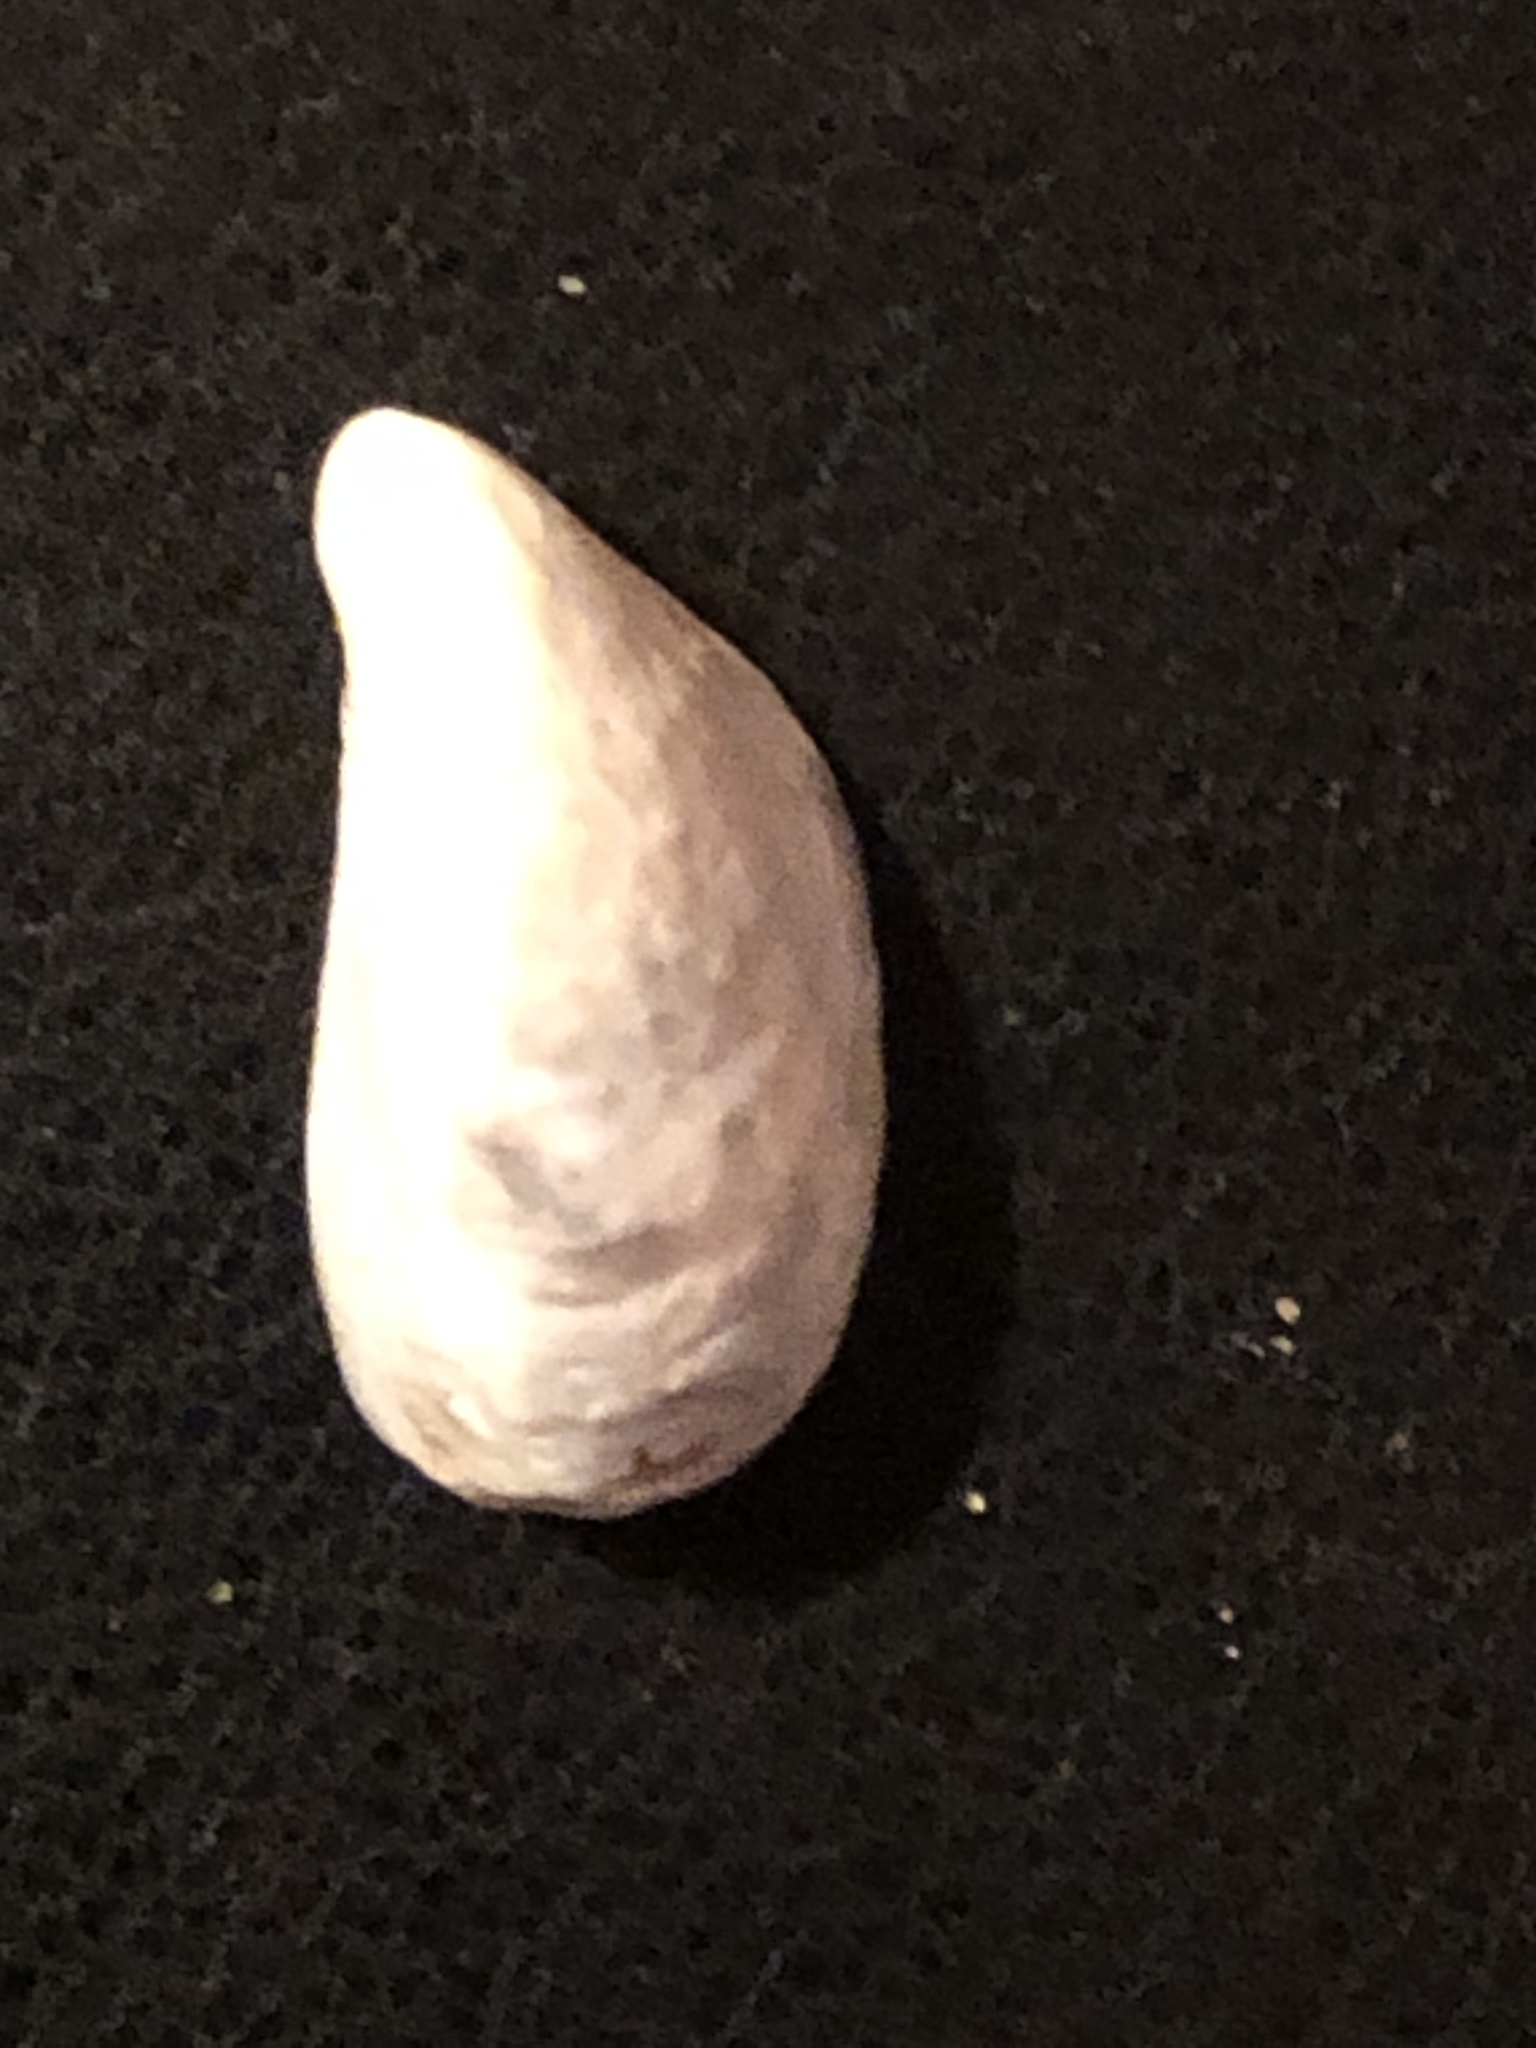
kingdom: Animalia
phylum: Mollusca
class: Bivalvia
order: Myida
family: Dreissenidae
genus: Dreissena
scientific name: Dreissena bugensis
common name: Quagga mussel
